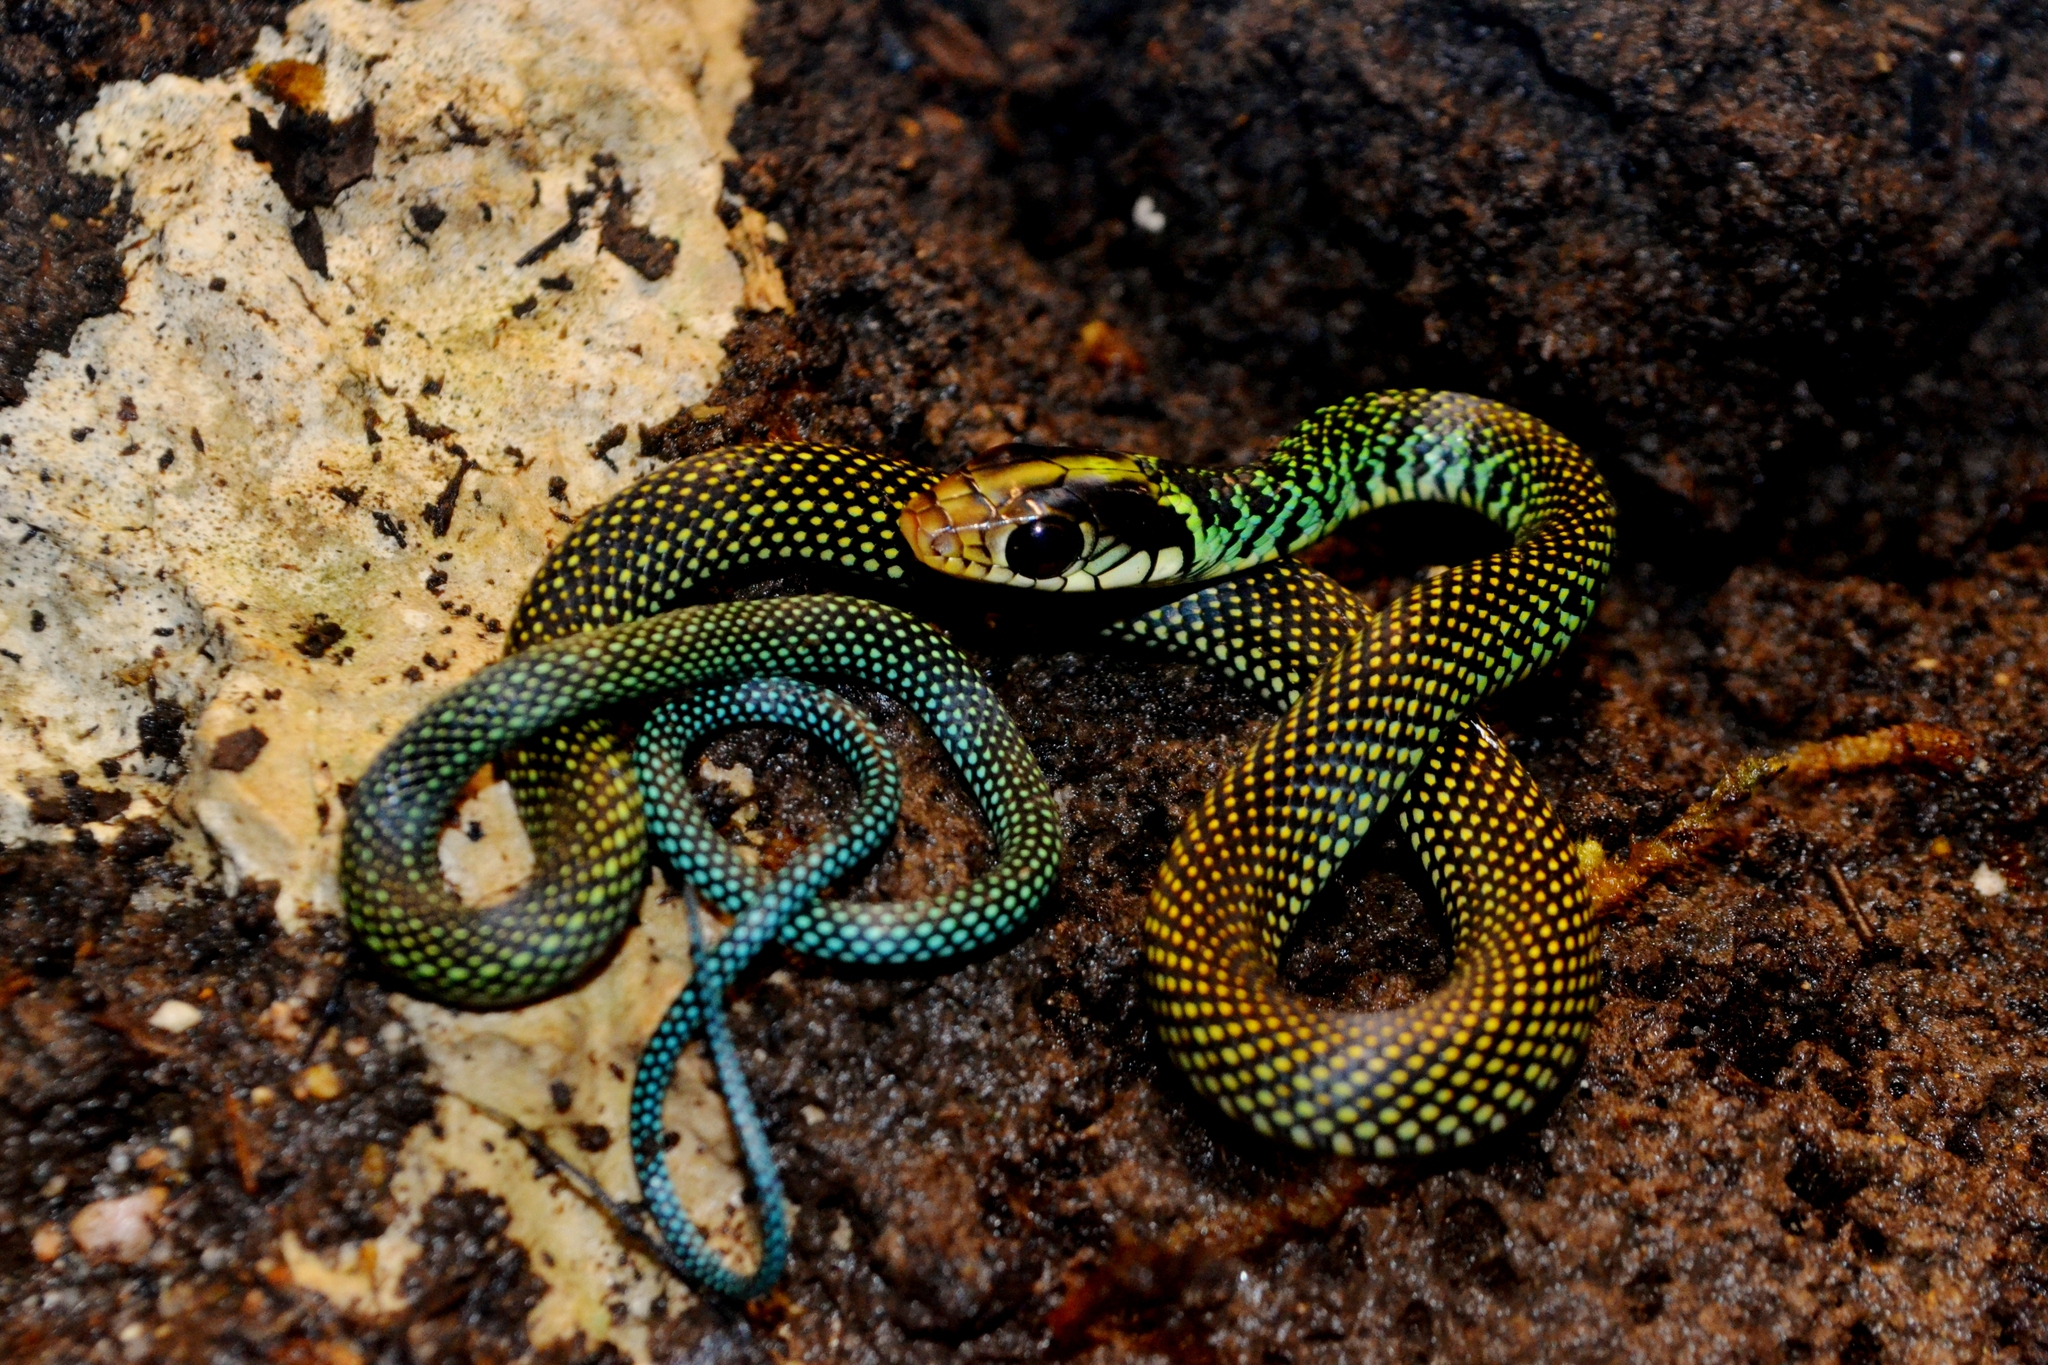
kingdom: Animalia
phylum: Chordata
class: Squamata
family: Colubridae
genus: Drymobius
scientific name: Drymobius margaritiferus
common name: Central american speckled racer
